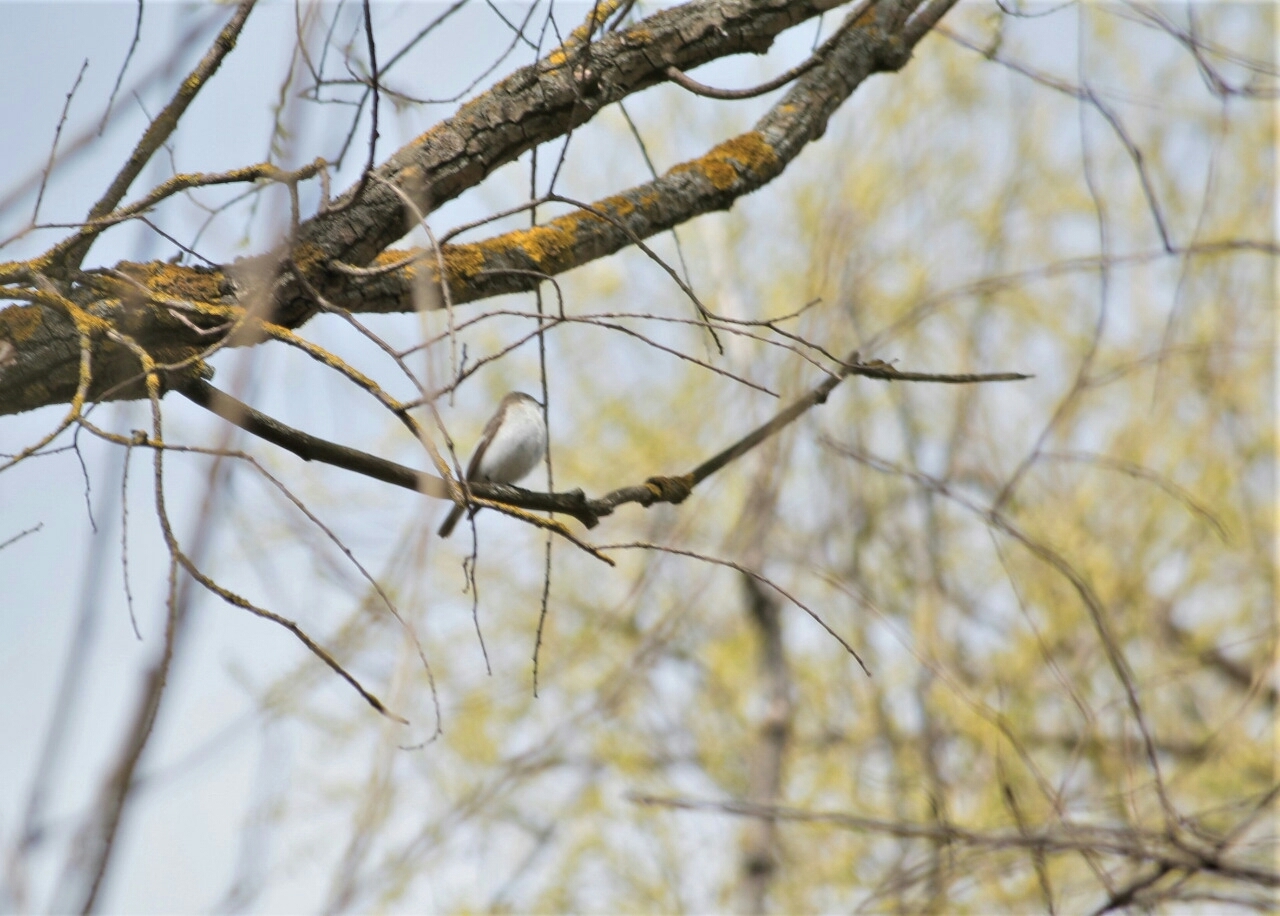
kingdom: Animalia
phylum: Chordata
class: Aves
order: Passeriformes
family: Muscicapidae
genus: Ficedula
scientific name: Ficedula hypoleuca
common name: European pied flycatcher
